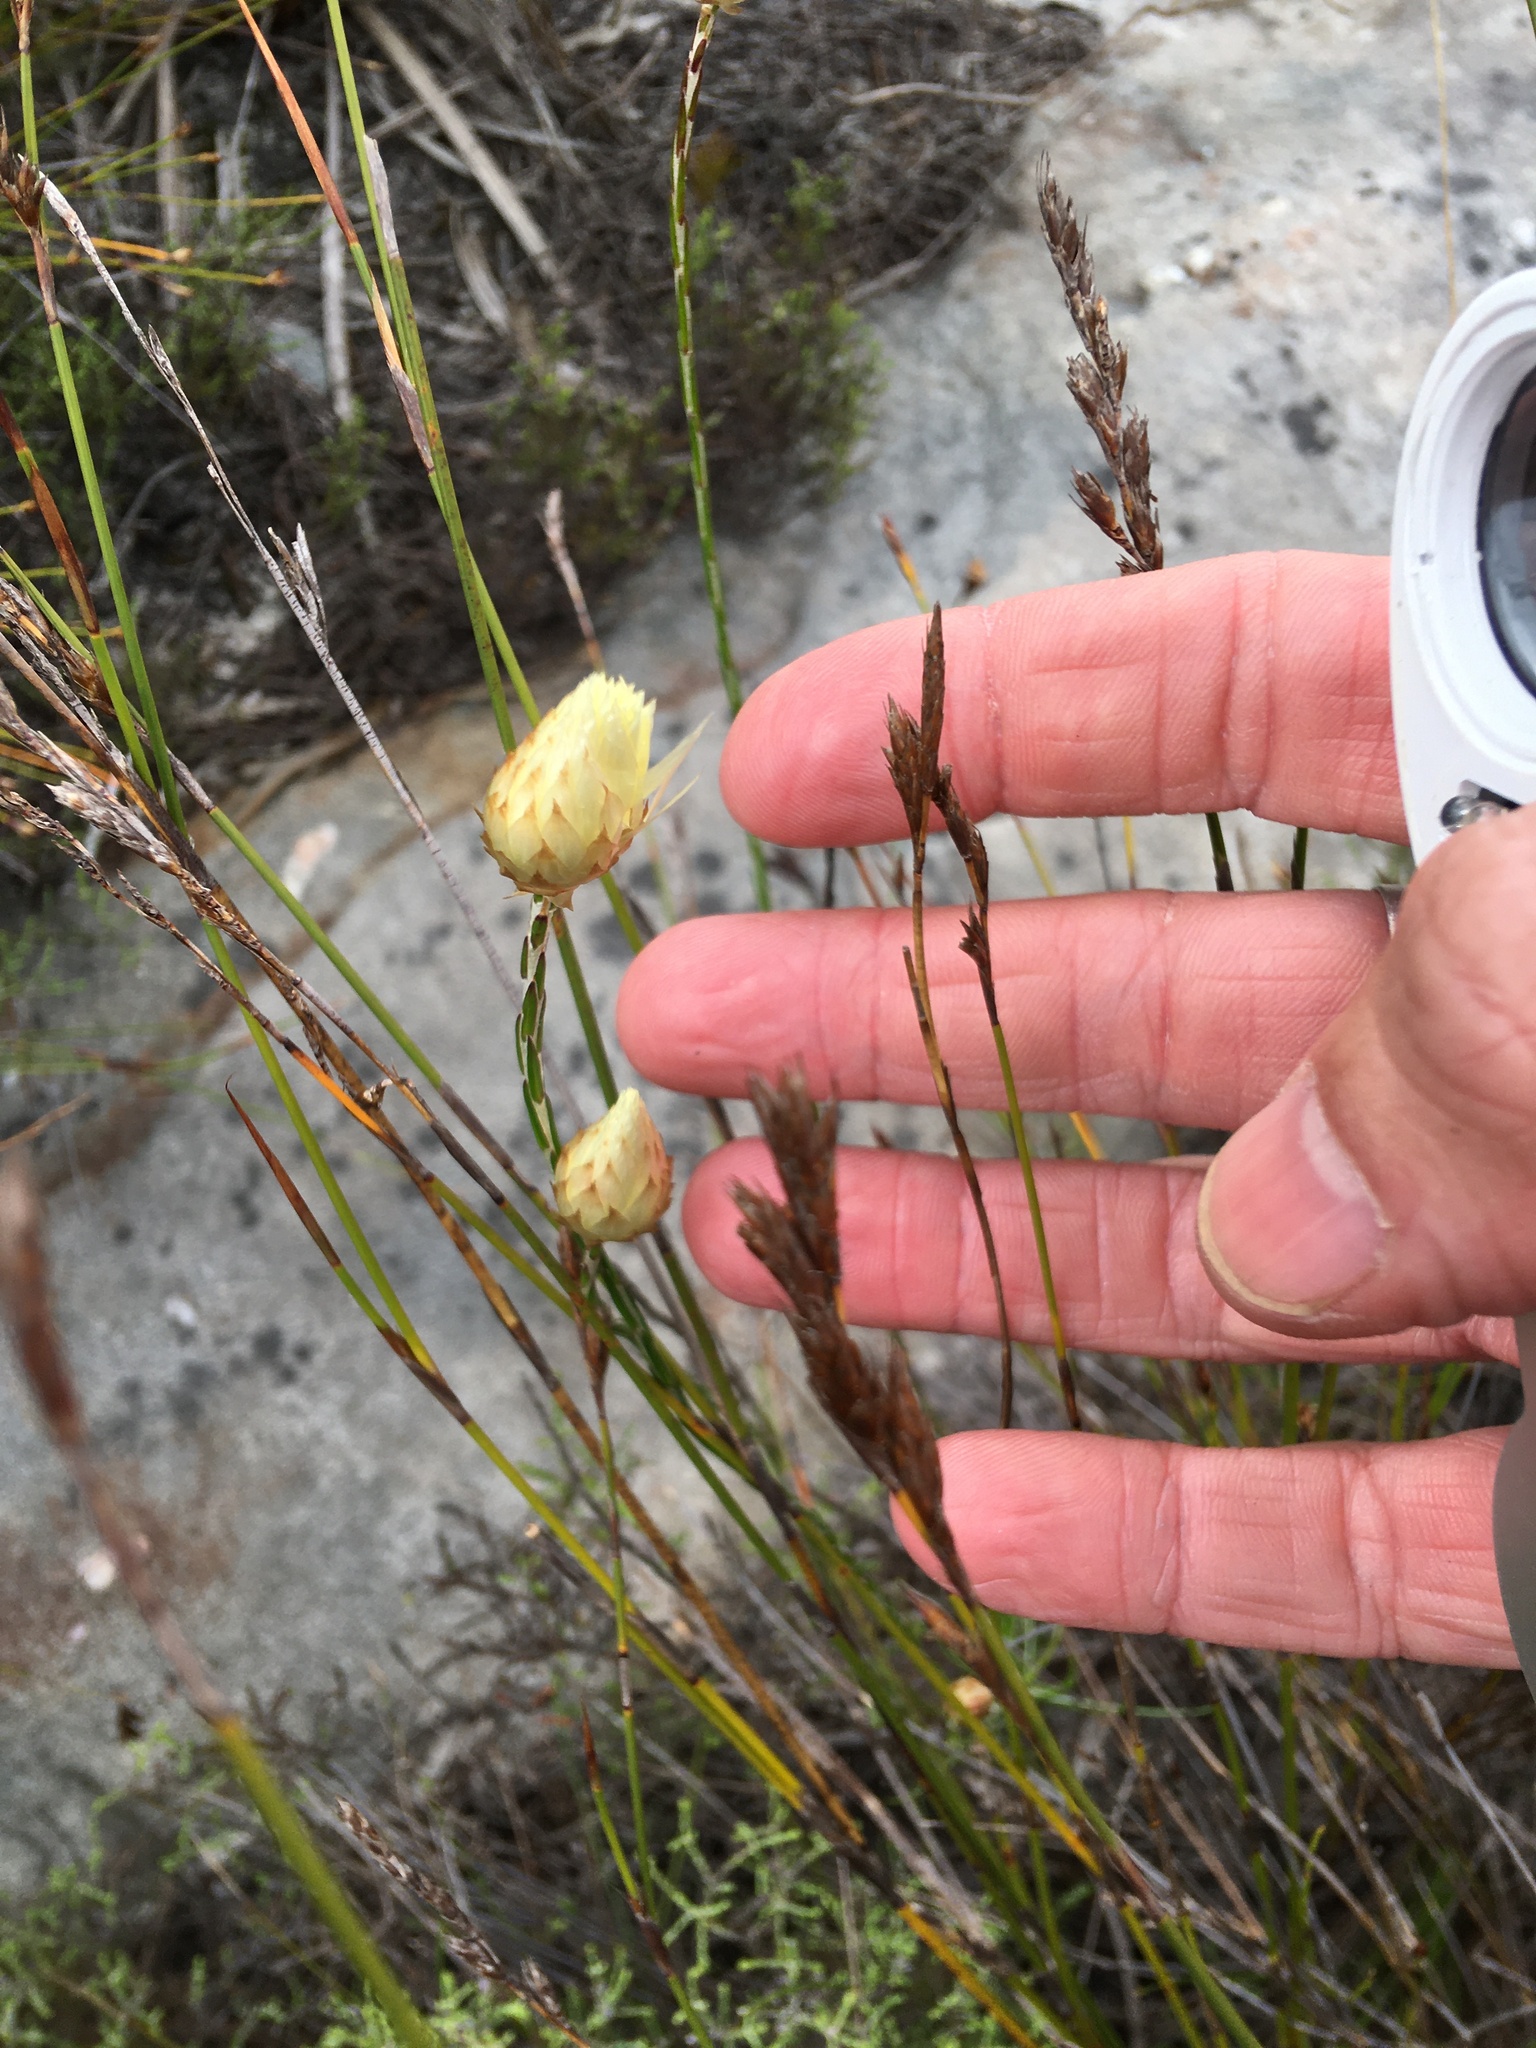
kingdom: Plantae
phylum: Tracheophyta
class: Magnoliopsida
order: Asterales
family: Asteraceae
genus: Edmondia
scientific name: Edmondia sesamoides
